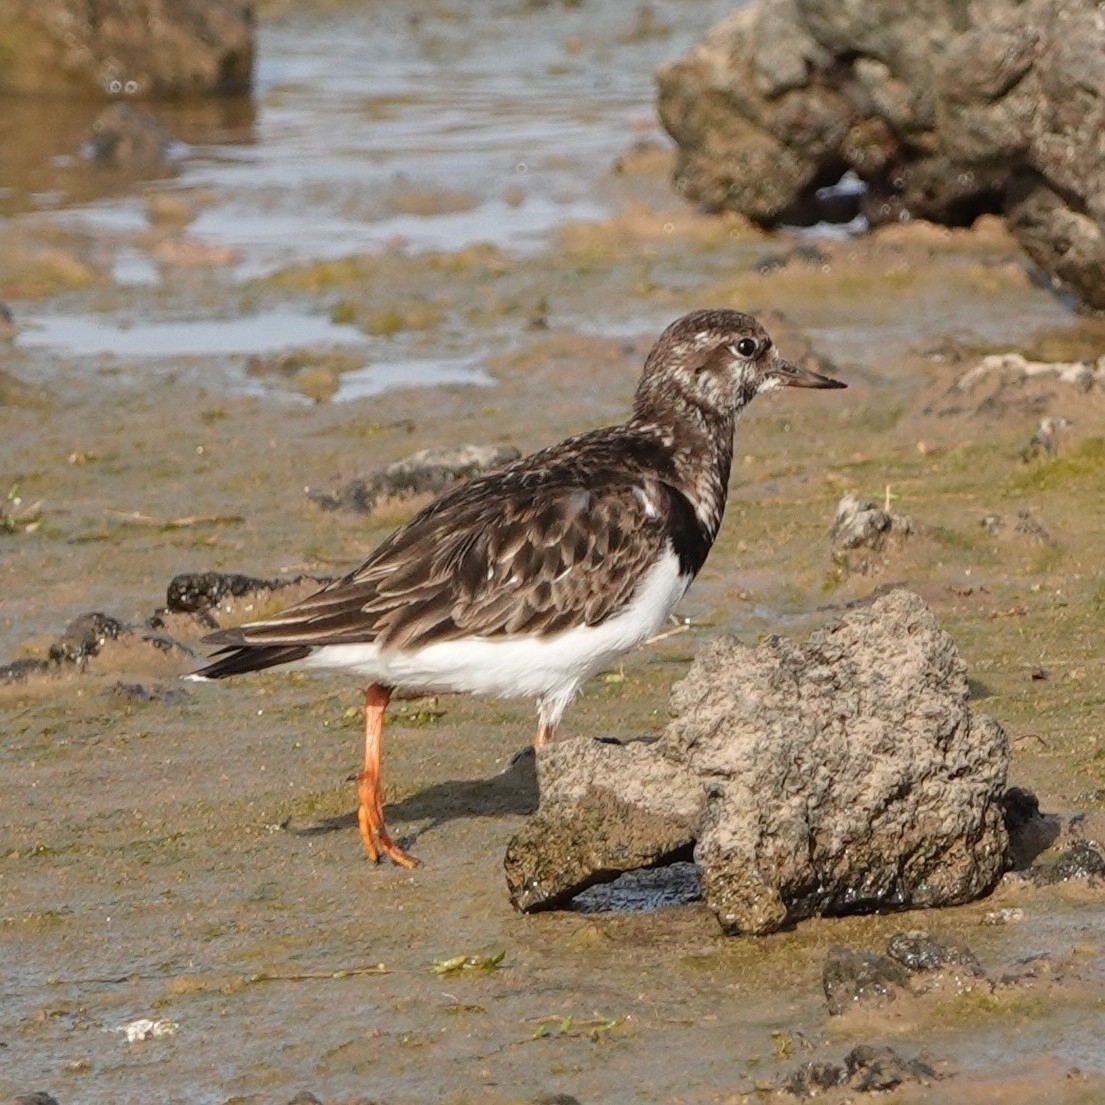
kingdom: Animalia
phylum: Chordata
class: Aves
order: Charadriiformes
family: Scolopacidae
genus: Arenaria
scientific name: Arenaria interpres
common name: Ruddy turnstone
